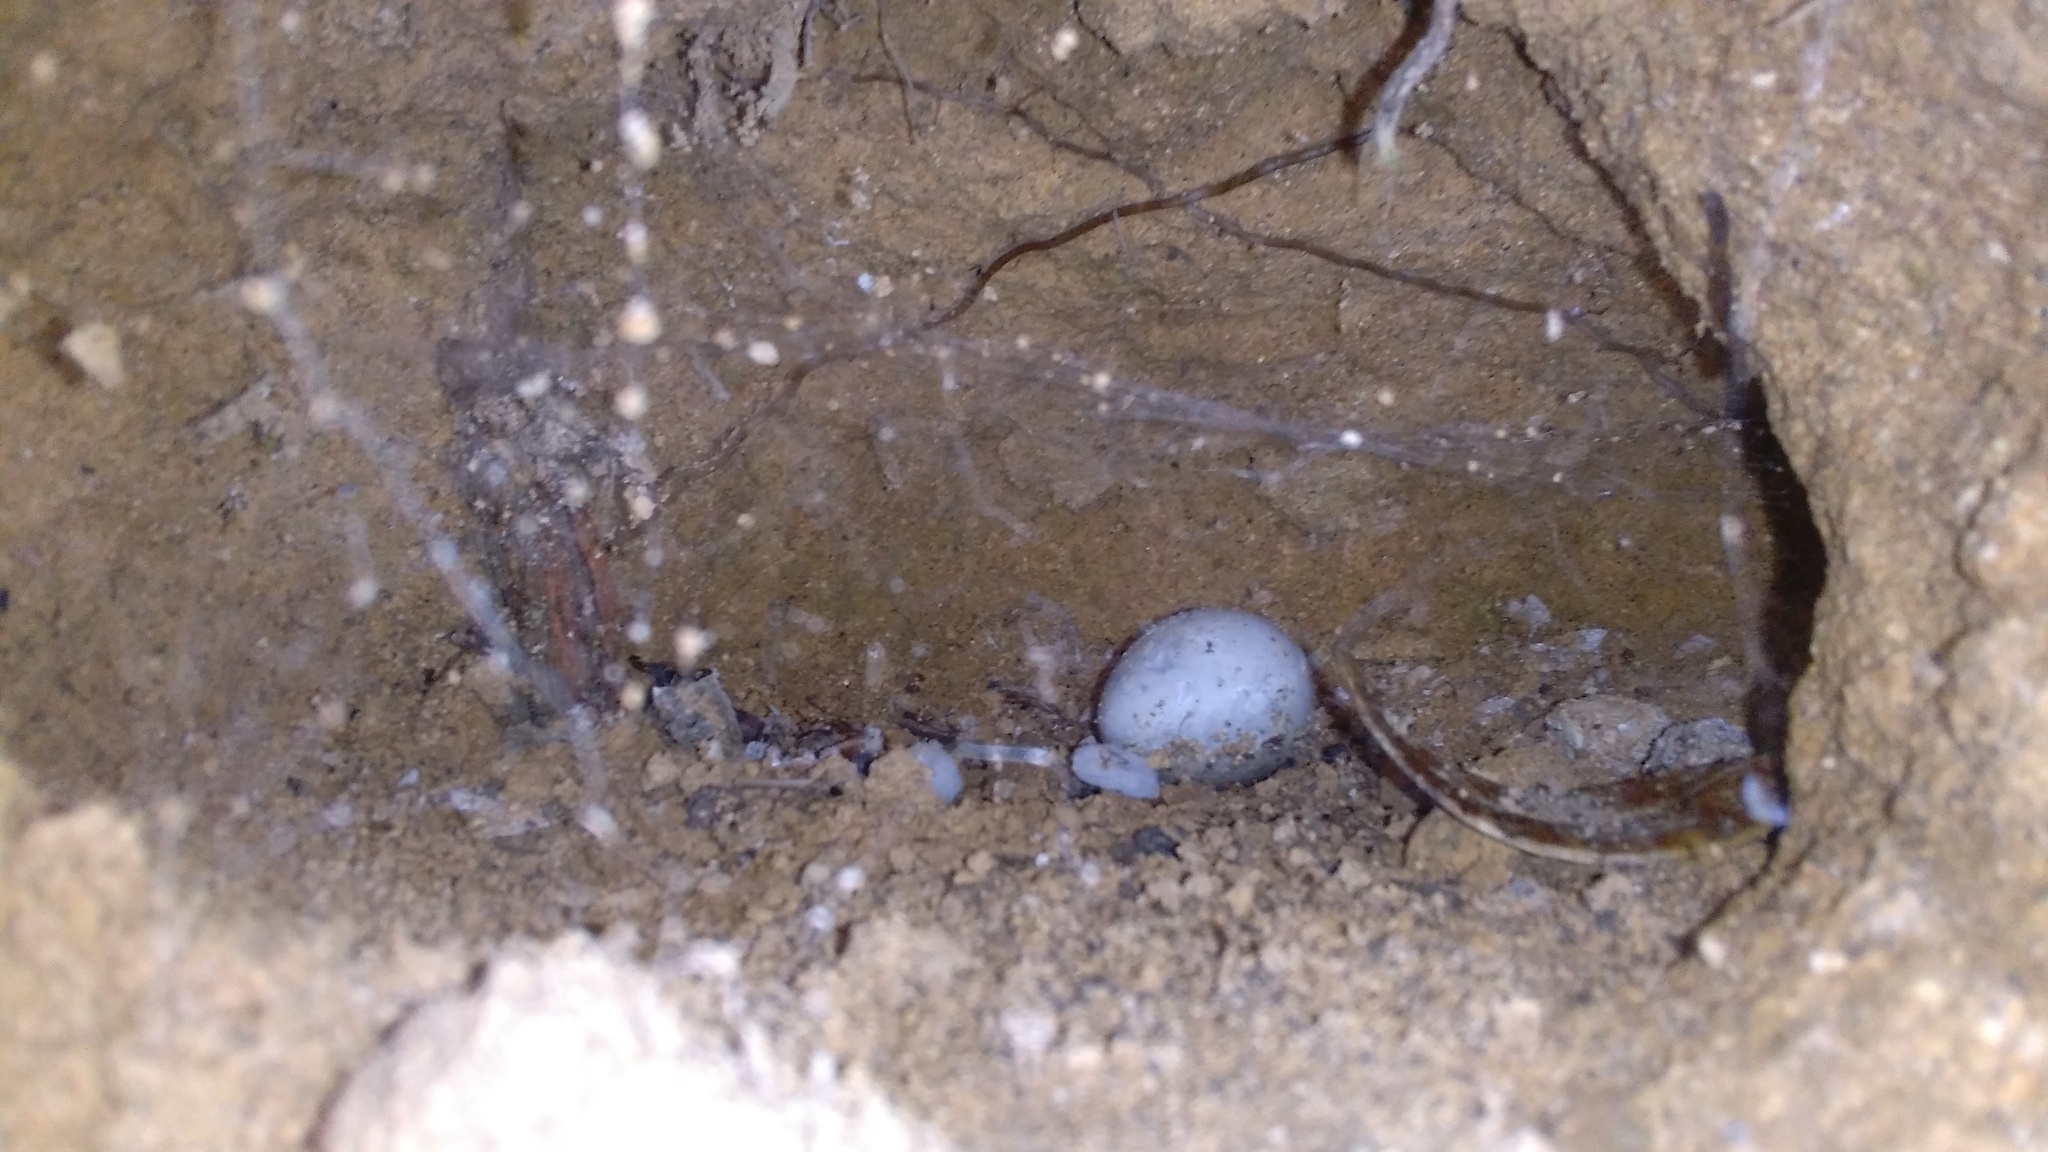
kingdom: Animalia
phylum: Chordata
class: Aves
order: Coraciiformes
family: Alcedinidae
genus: Todiramphus
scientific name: Todiramphus sanctus
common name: Sacred kingfisher
